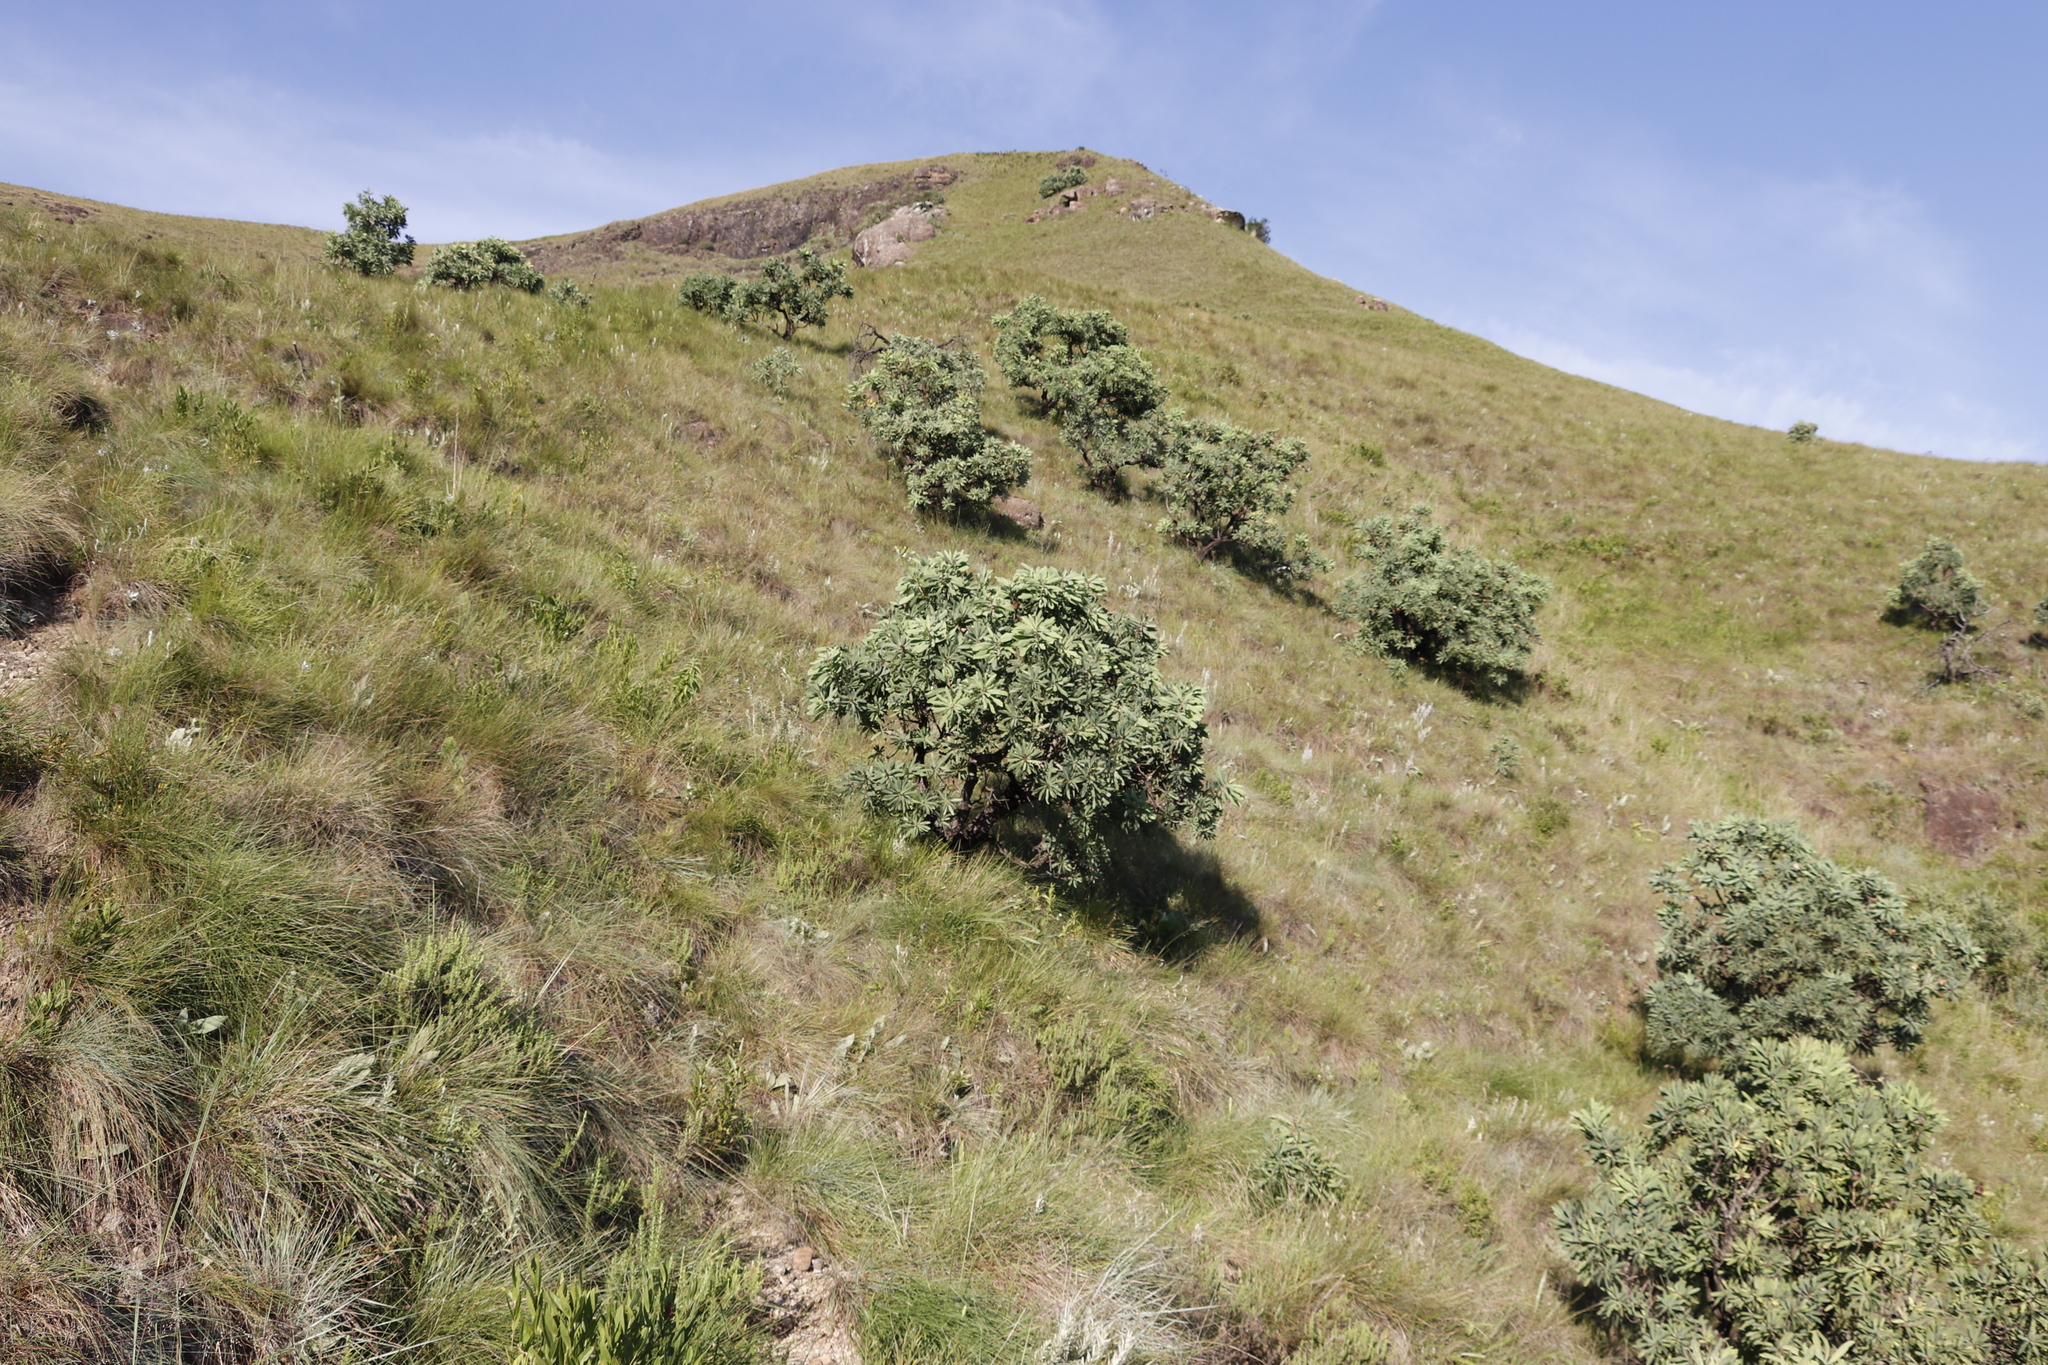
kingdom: Plantae
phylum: Tracheophyta
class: Magnoliopsida
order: Proteales
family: Proteaceae
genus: Protea
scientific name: Protea caffra
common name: Common sugarbush
